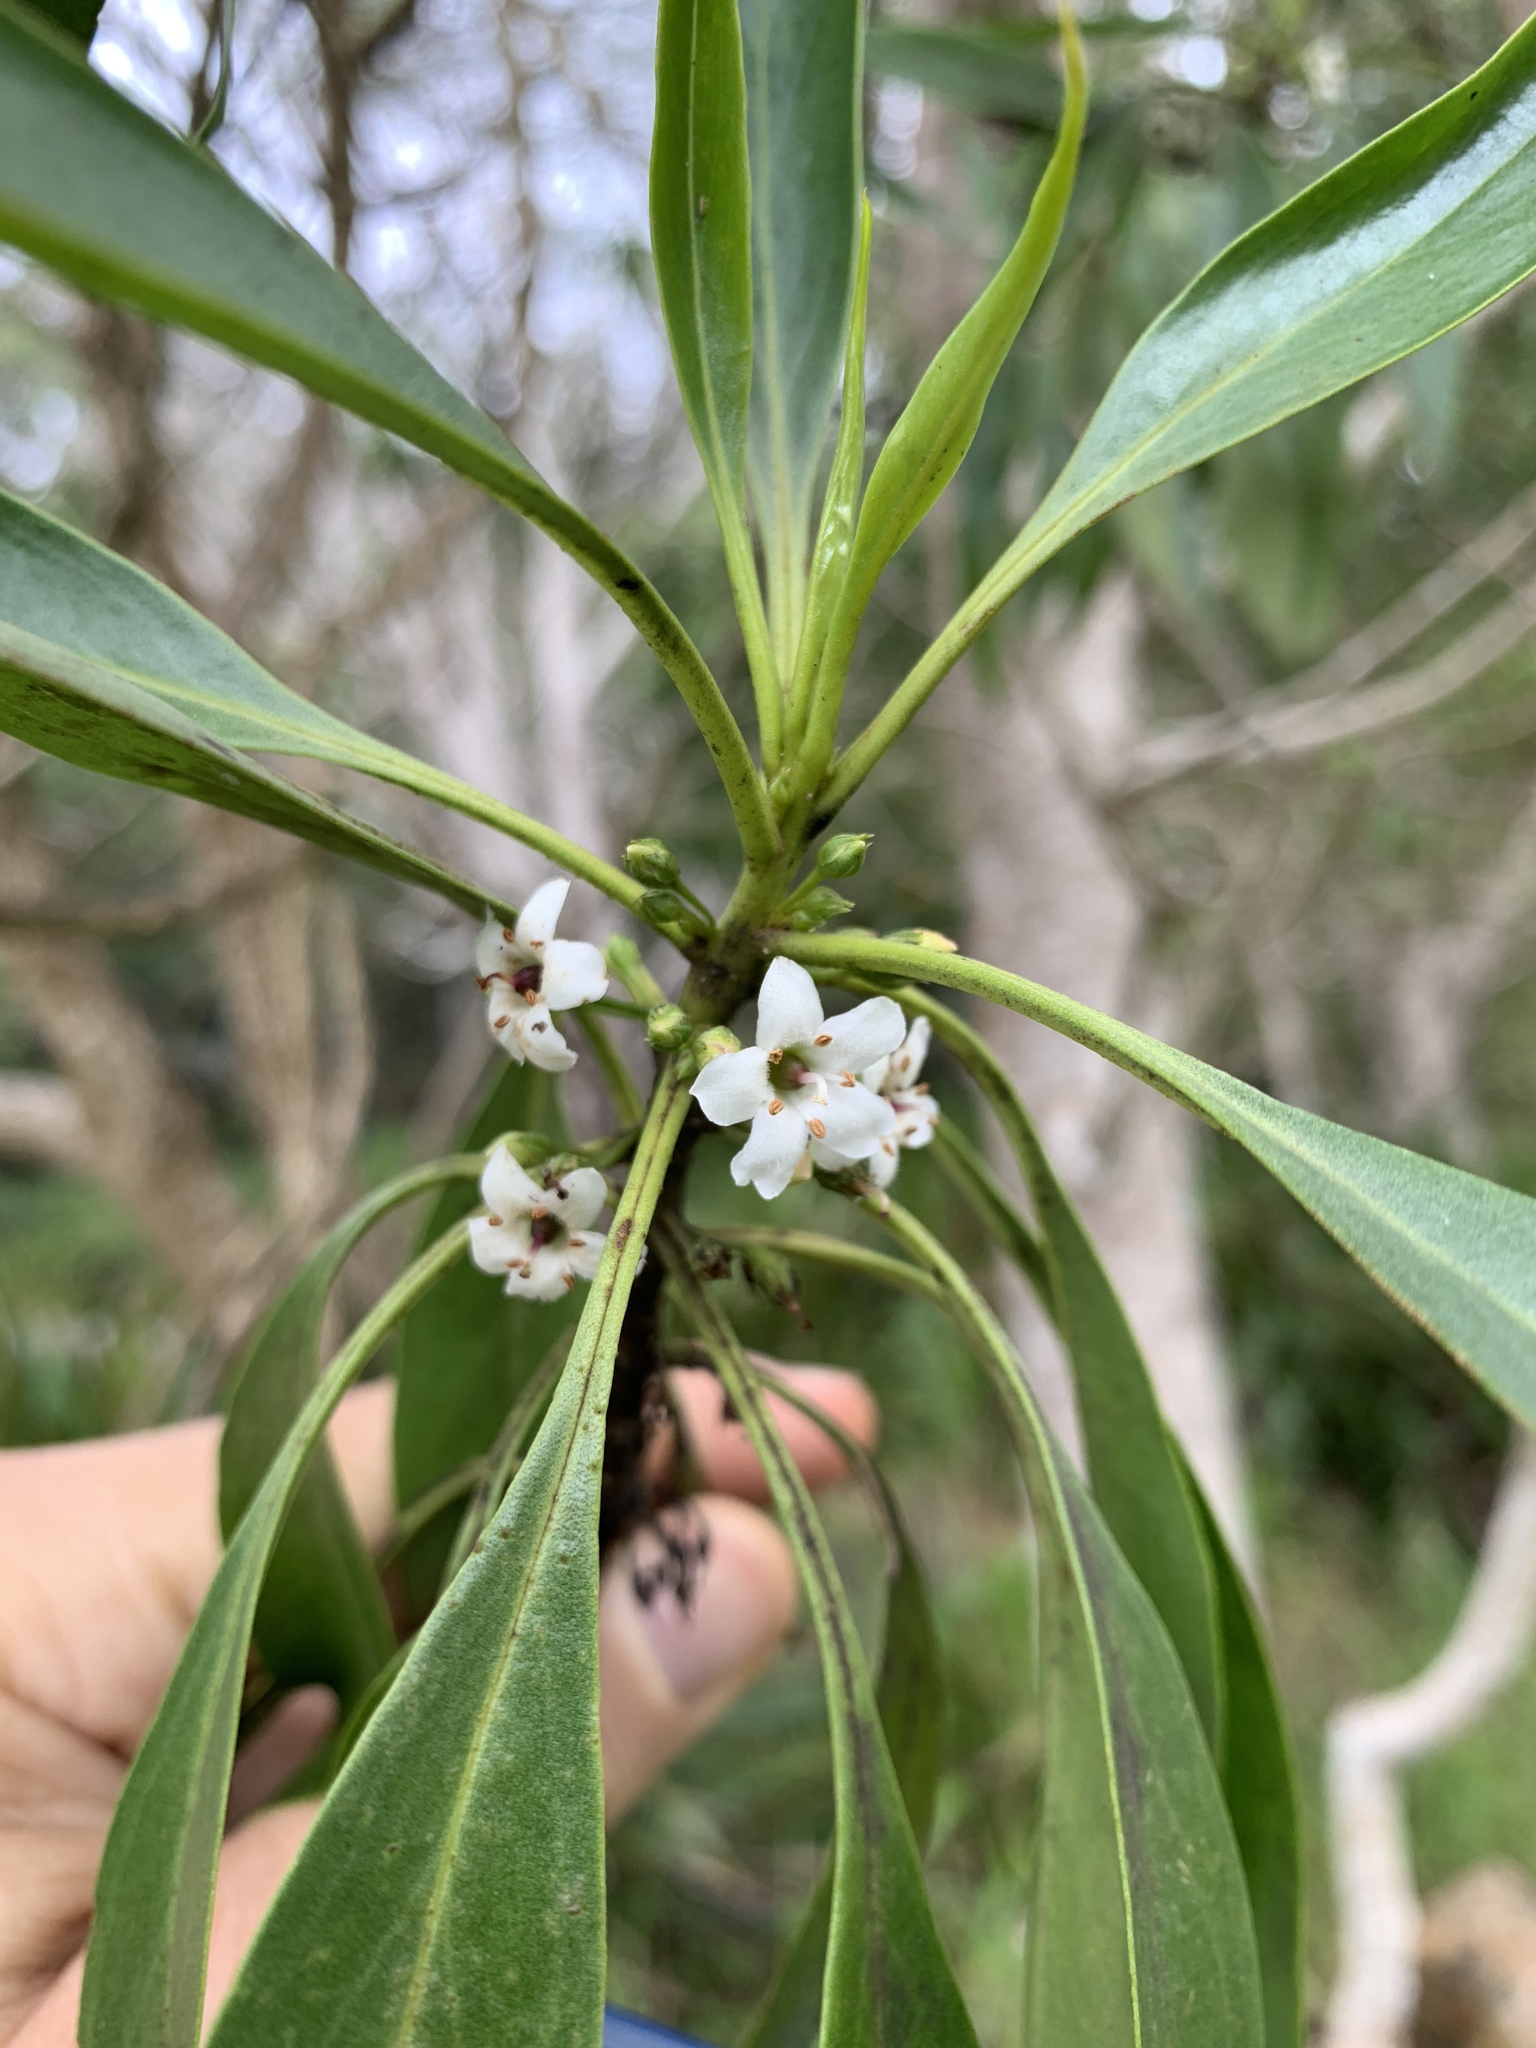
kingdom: Plantae
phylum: Tracheophyta
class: Magnoliopsida
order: Lamiales
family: Scrophulariaceae
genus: Myoporum
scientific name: Myoporum sandwicense
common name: Bastard-sandalwood
